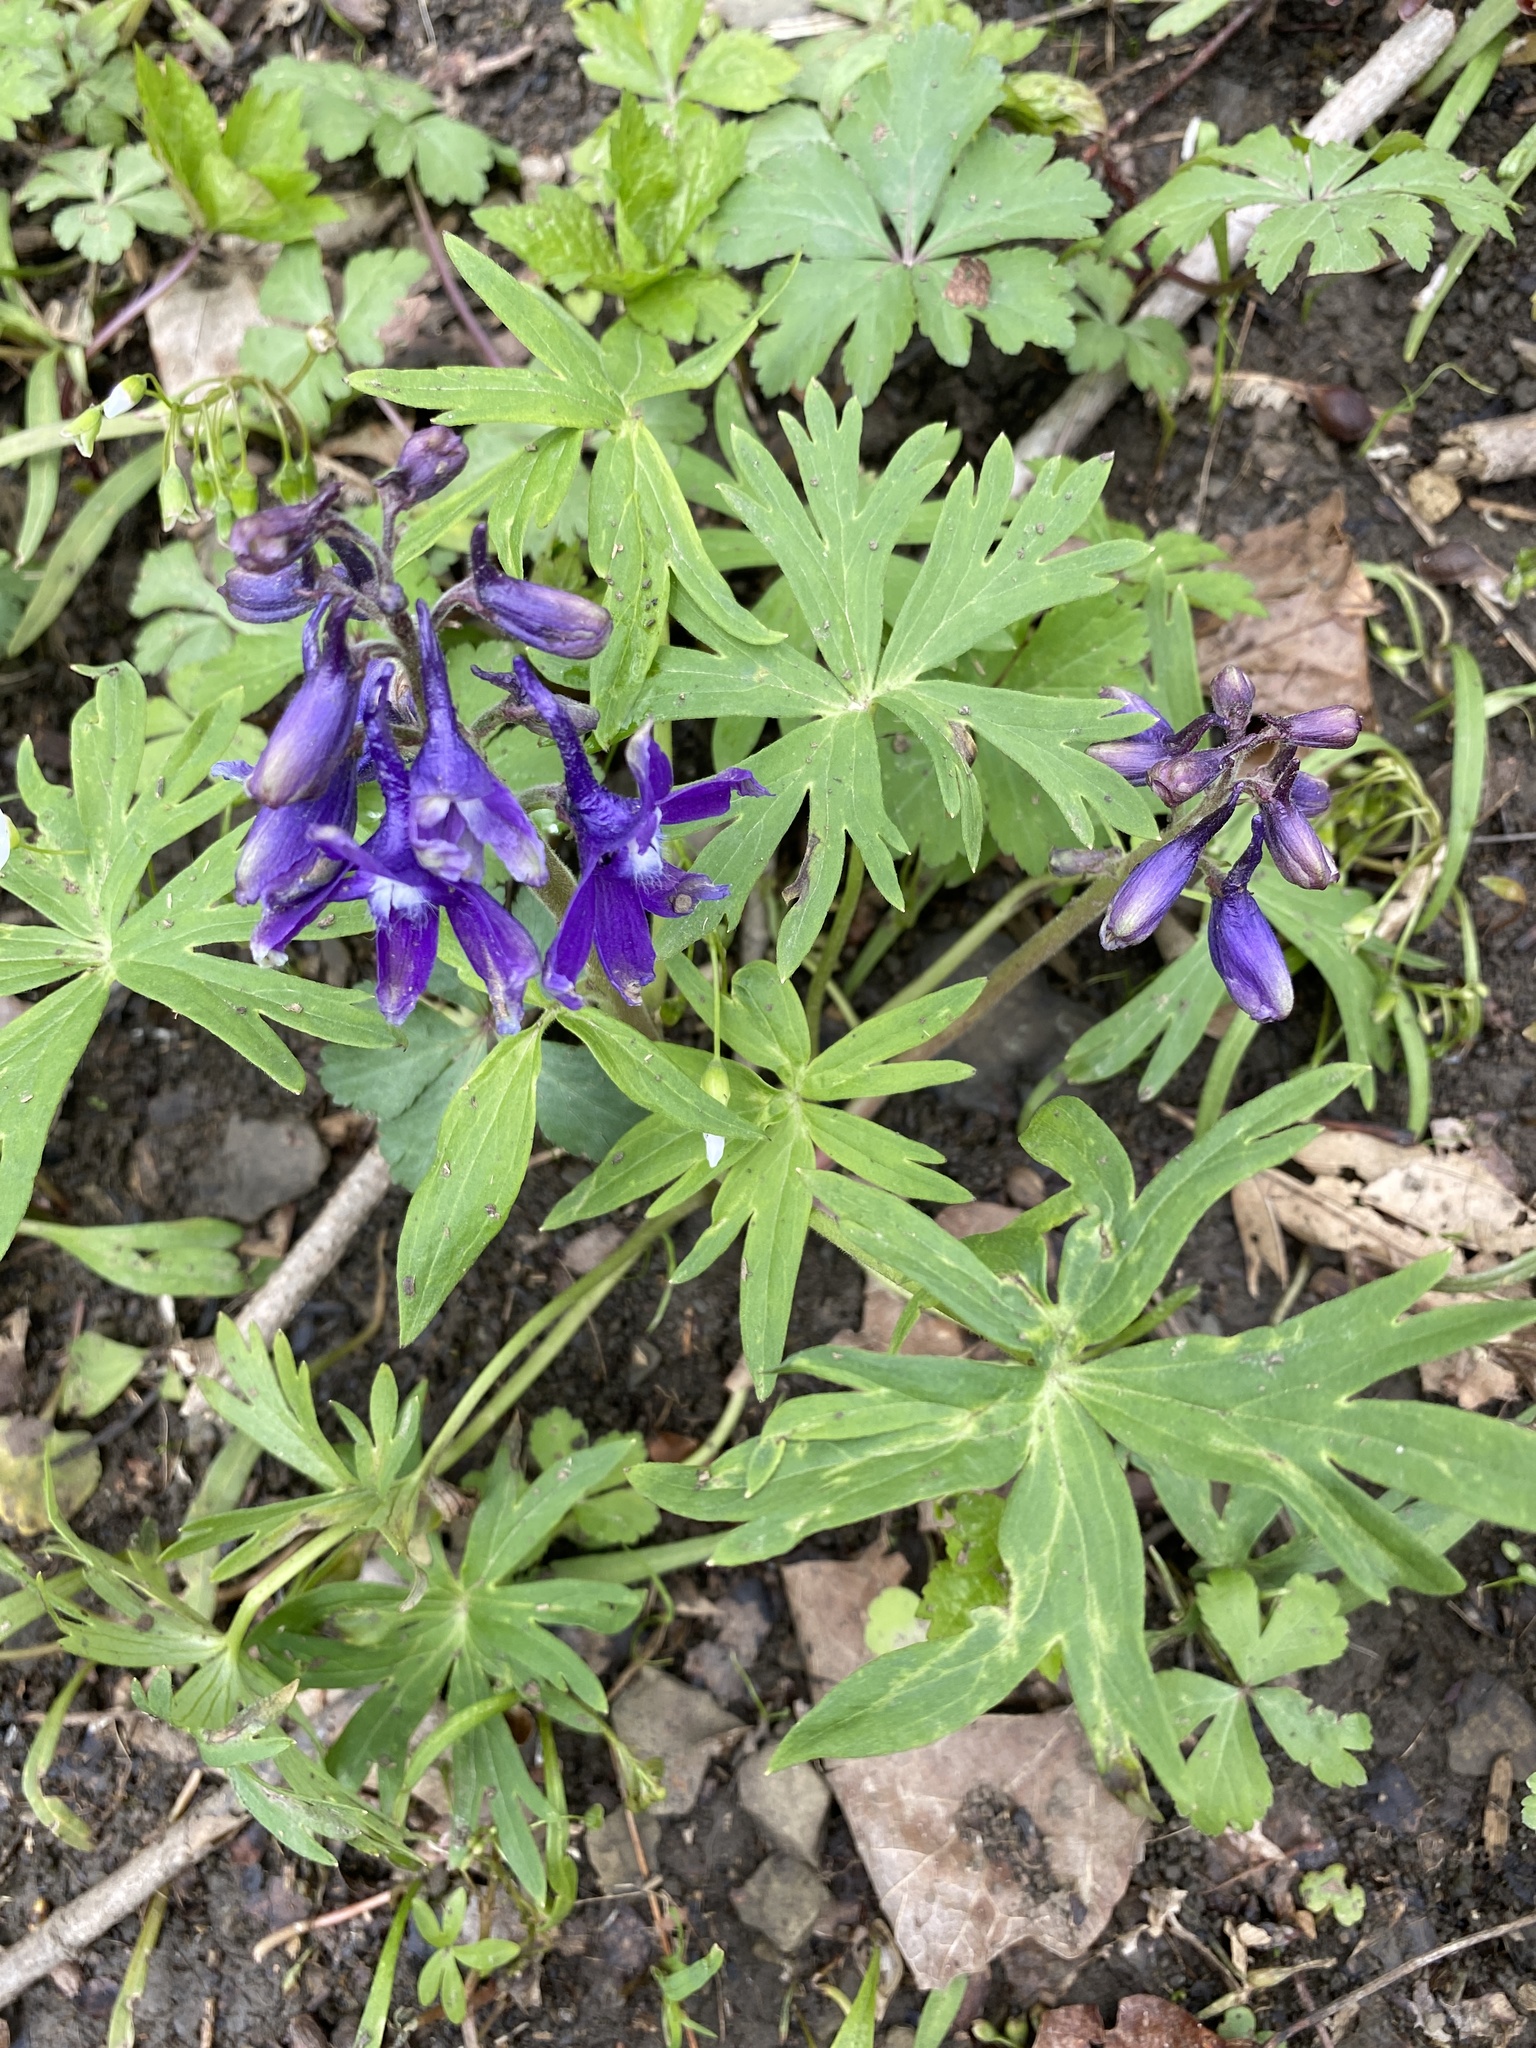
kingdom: Plantae
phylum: Tracheophyta
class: Magnoliopsida
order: Ranunculales
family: Ranunculaceae
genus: Delphinium
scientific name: Delphinium tricorne
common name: Dwarf larkspur
